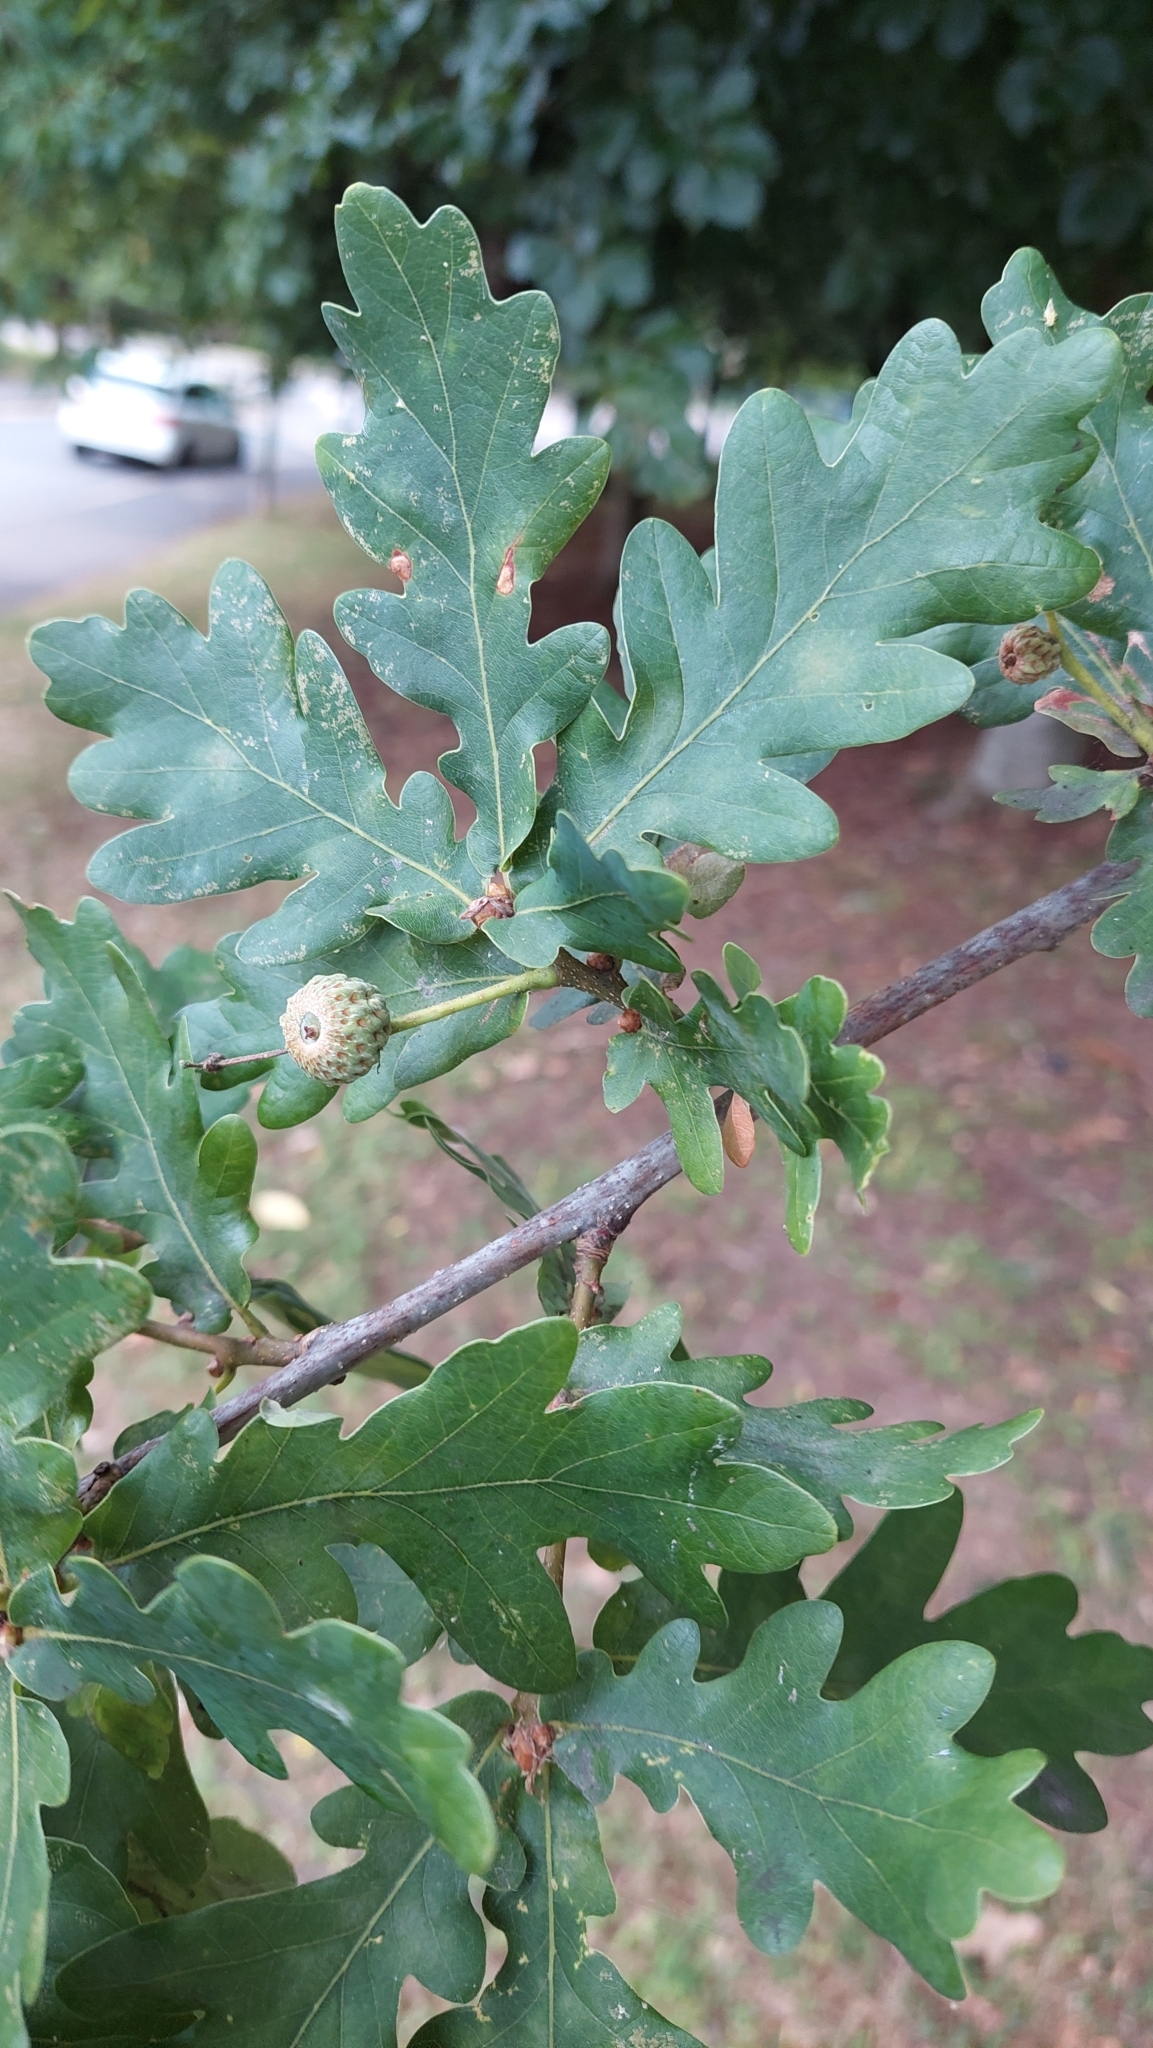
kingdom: Plantae
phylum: Tracheophyta
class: Magnoliopsida
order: Fagales
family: Fagaceae
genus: Quercus
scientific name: Quercus robur
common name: Pedunculate oak
